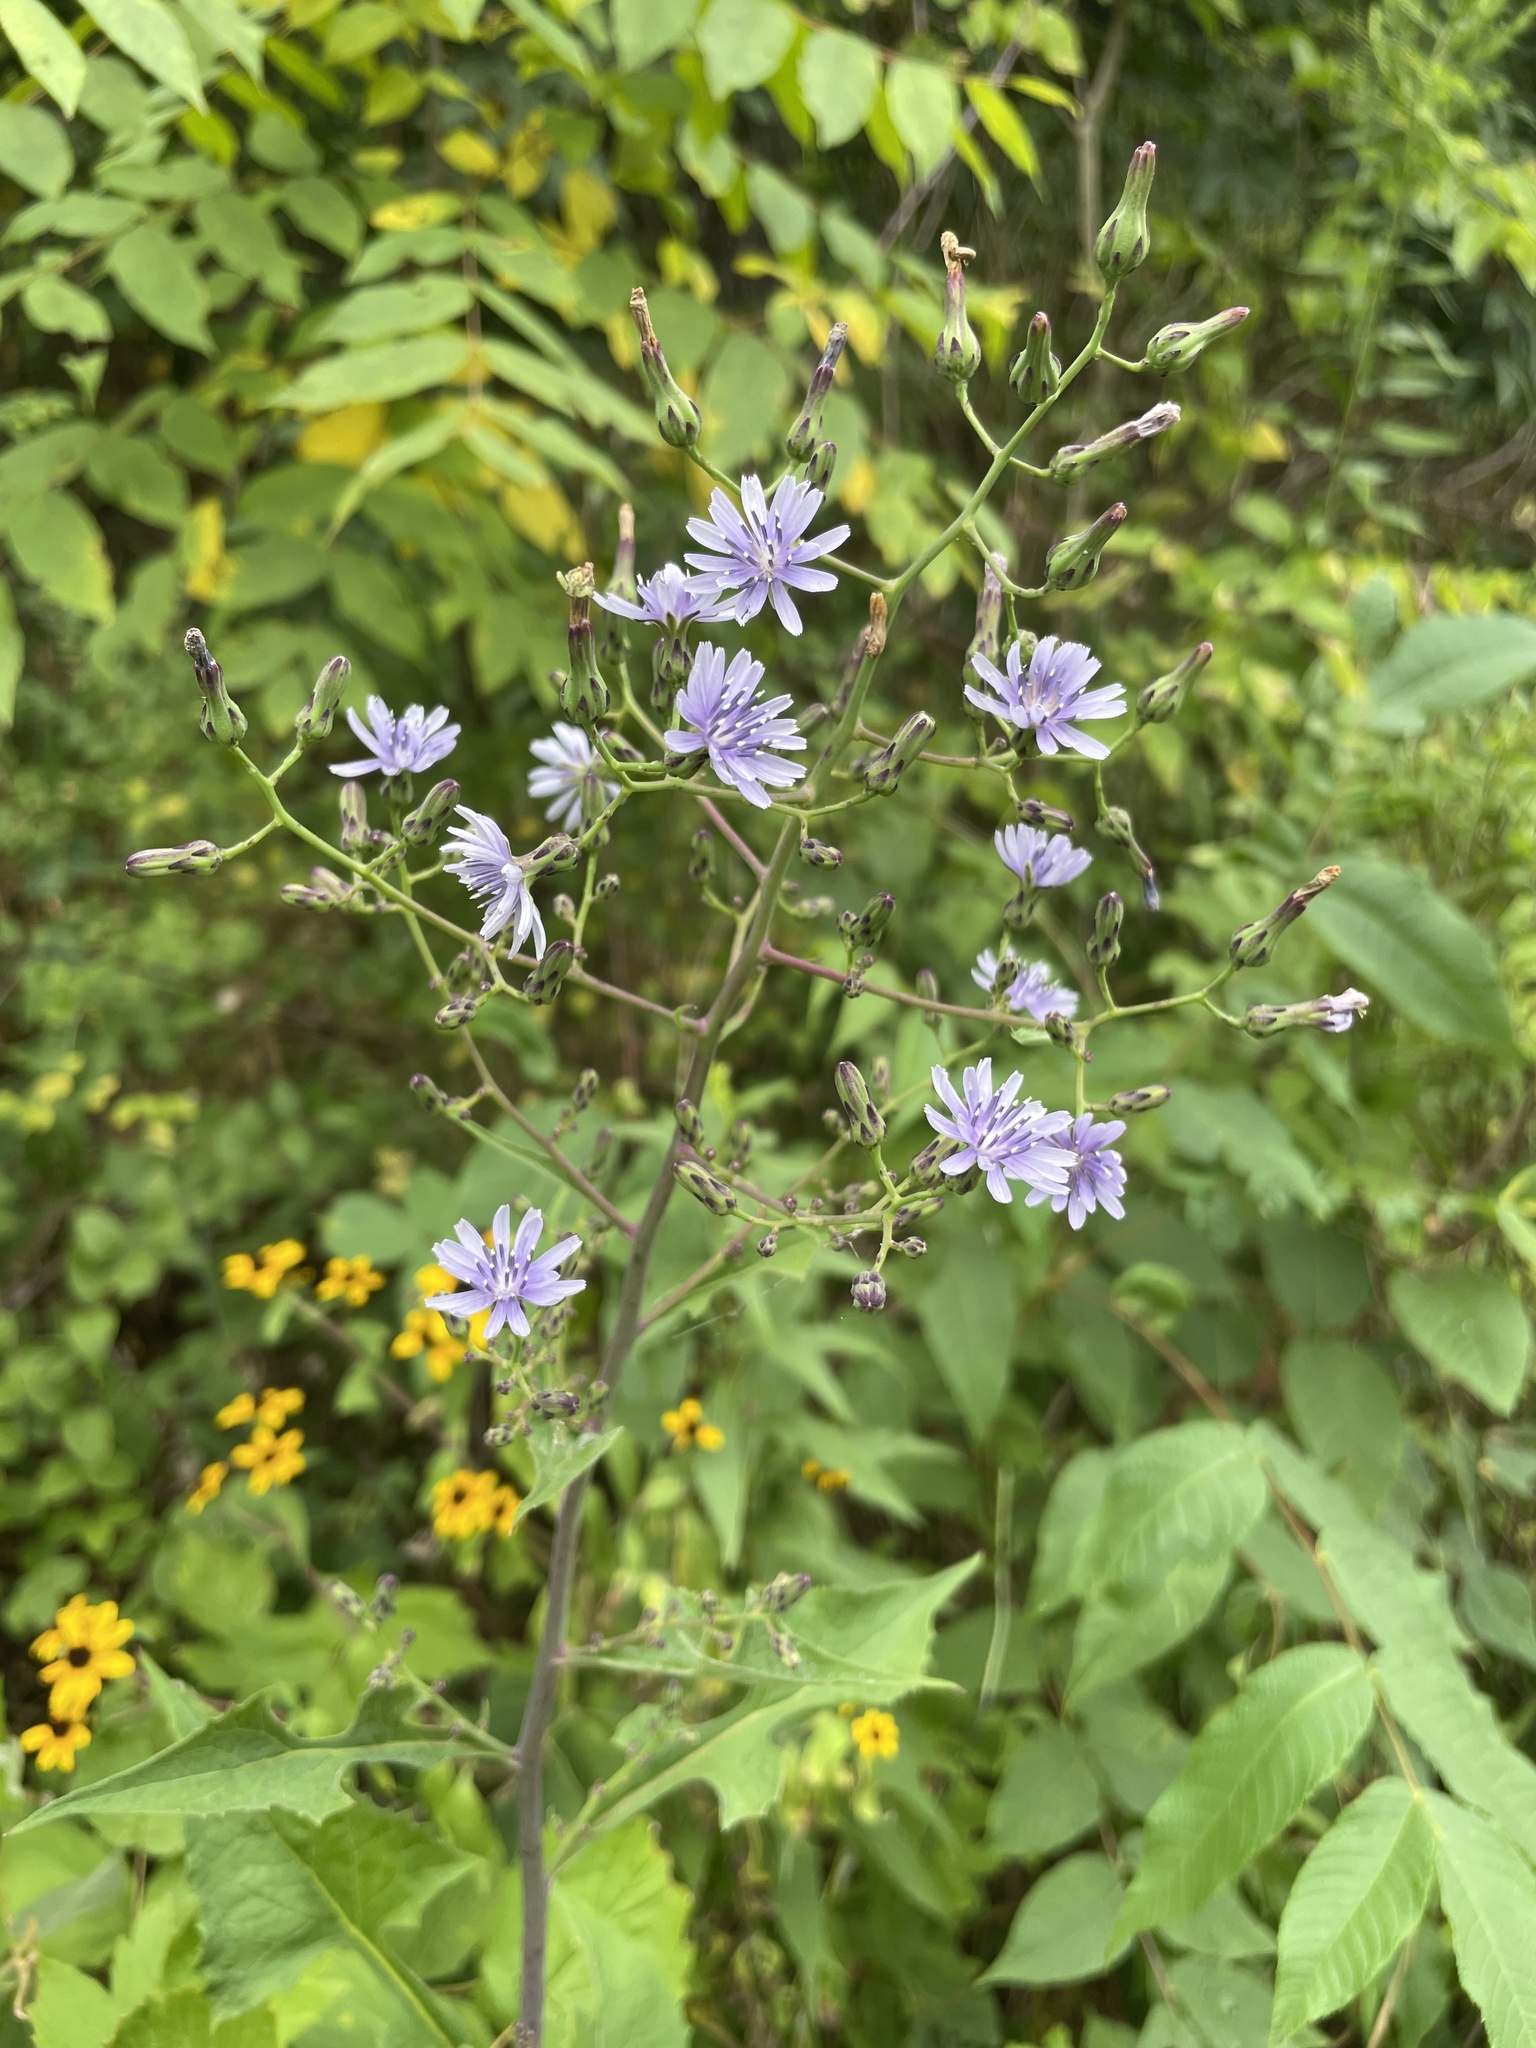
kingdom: Plantae
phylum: Tracheophyta
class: Magnoliopsida
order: Asterales
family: Asteraceae
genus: Lactuca
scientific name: Lactuca floridana
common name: Woodland lettuce
